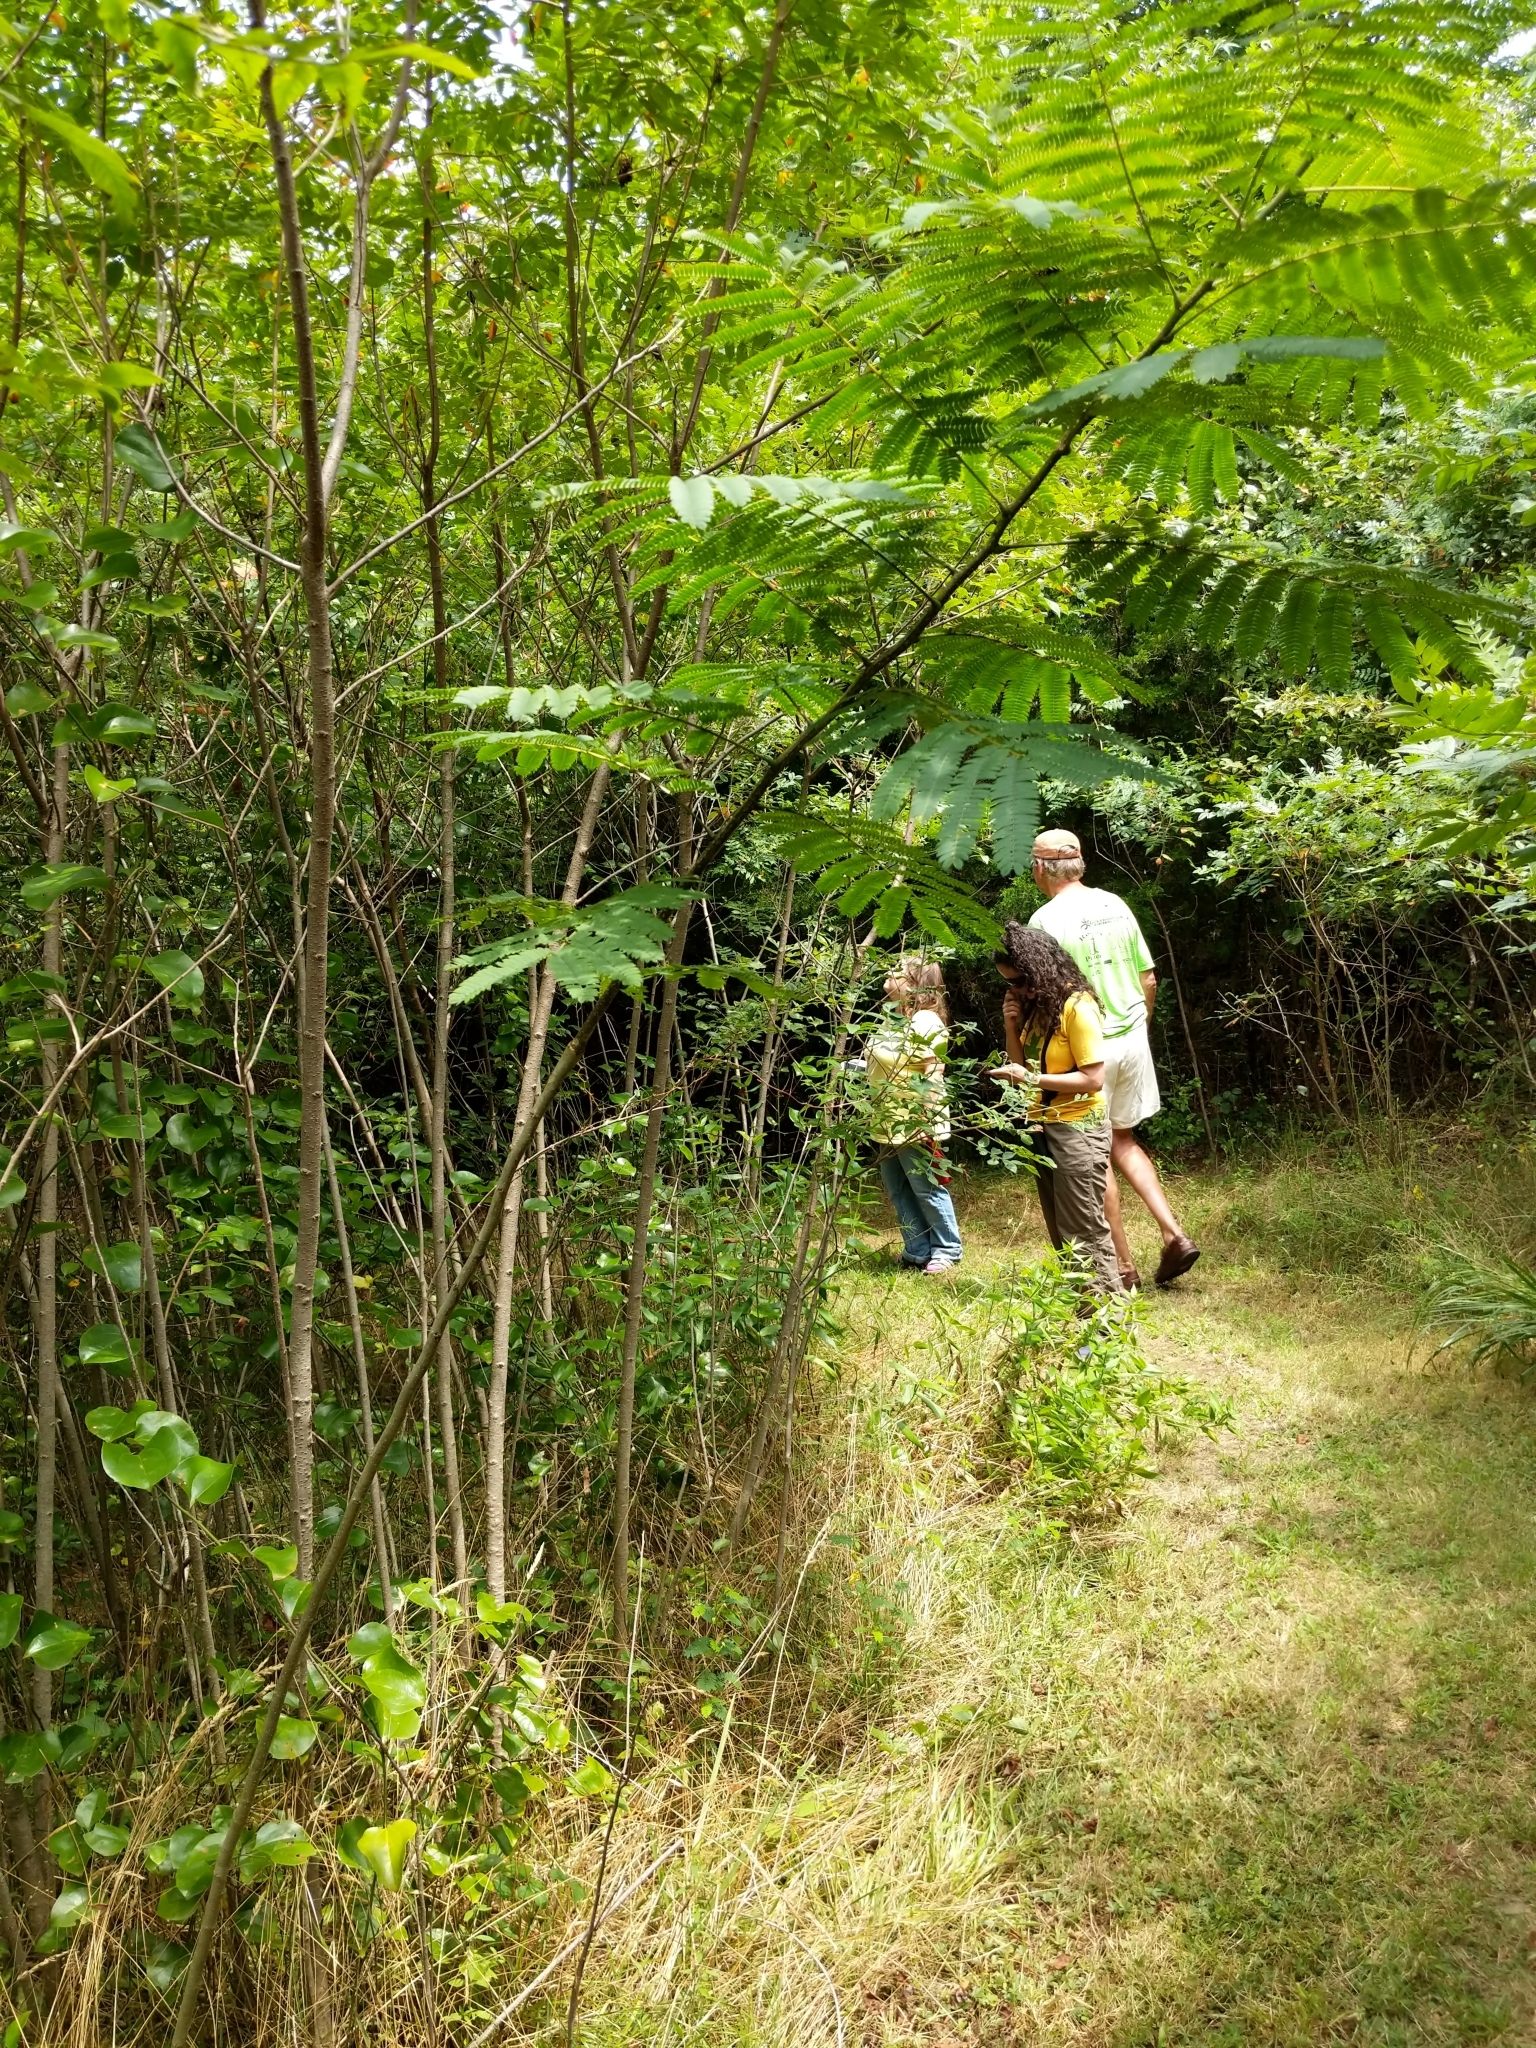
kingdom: Plantae
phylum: Tracheophyta
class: Magnoliopsida
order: Fabales
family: Fabaceae
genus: Albizia
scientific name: Albizia julibrissin
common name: Silktree
